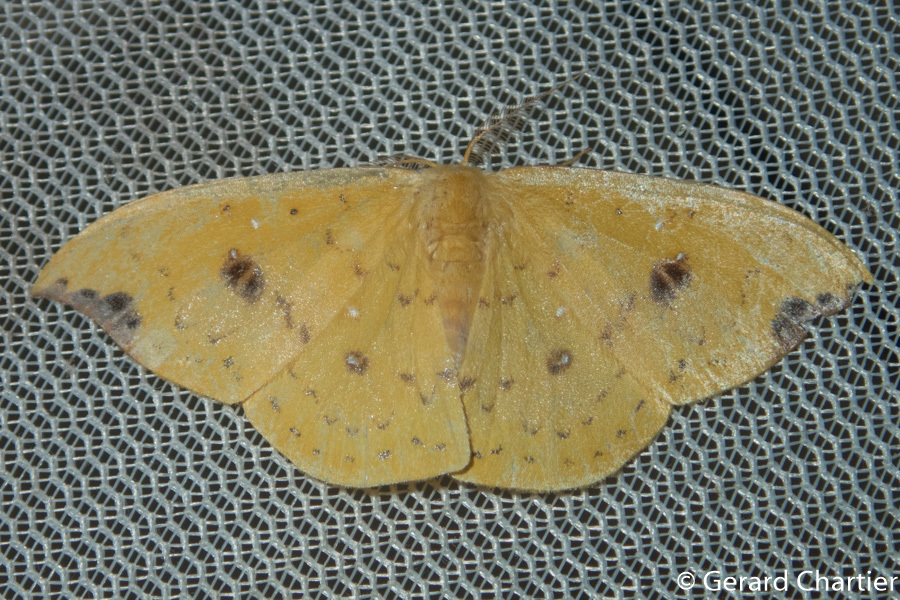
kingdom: Animalia
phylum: Arthropoda
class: Insecta
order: Lepidoptera
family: Drepanidae
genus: Tridrepana
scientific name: Tridrepana fulvata
